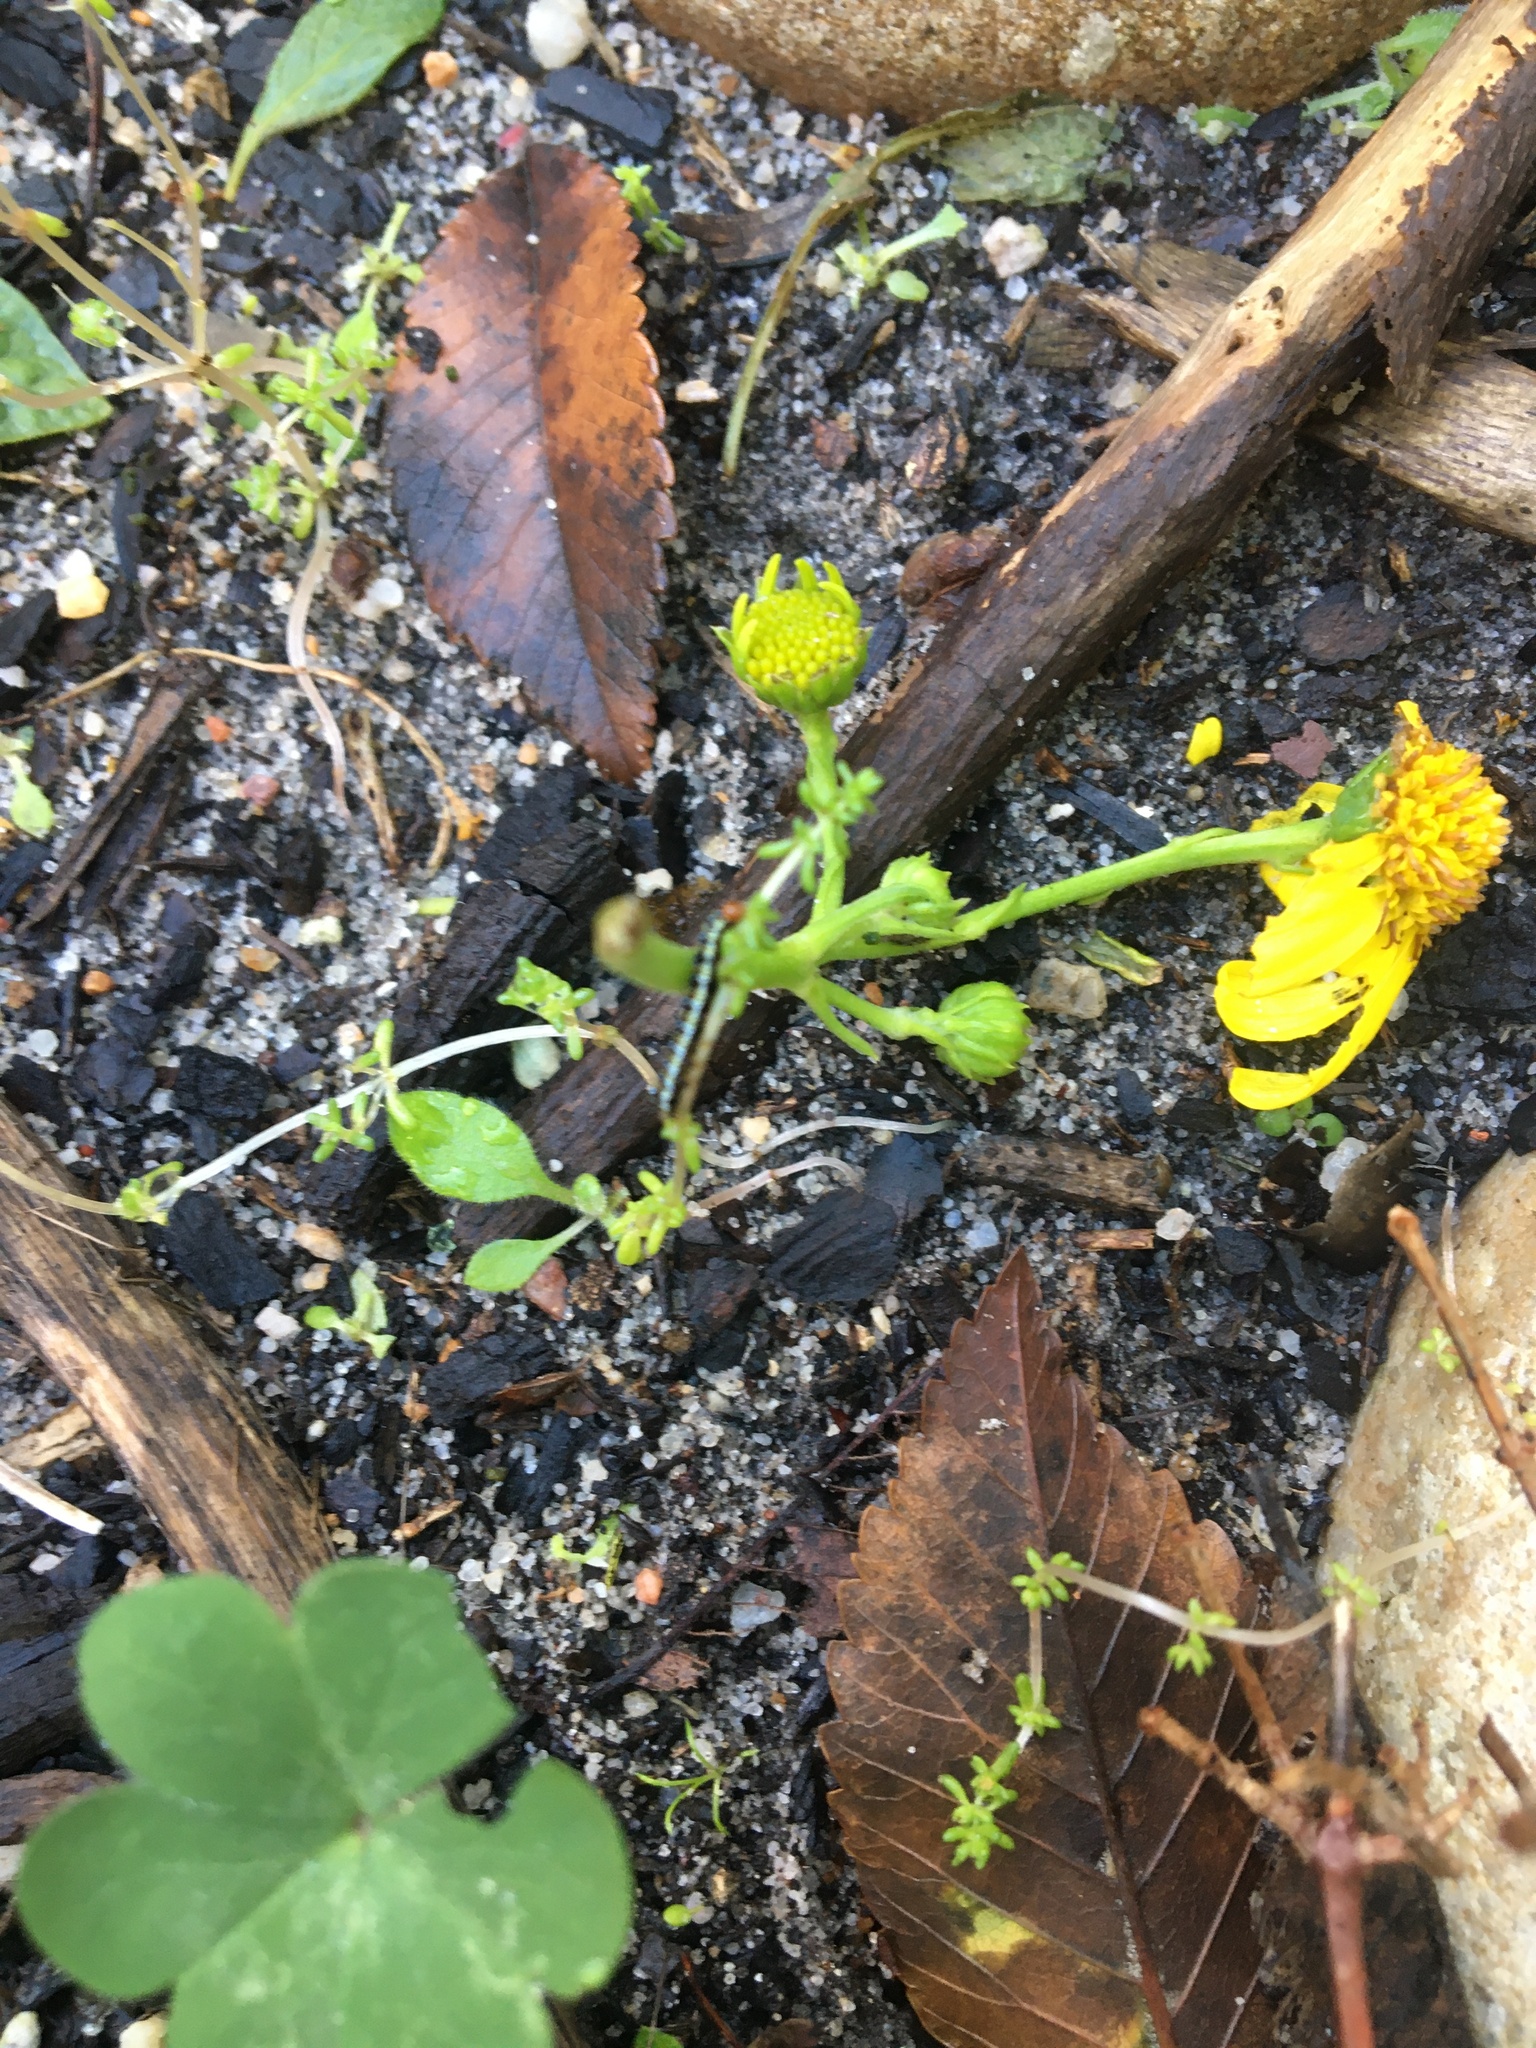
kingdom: Animalia
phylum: Arthropoda
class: Insecta
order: Lepidoptera
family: Noctuidae
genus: Klugeana
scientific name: Klugeana philoxalis
